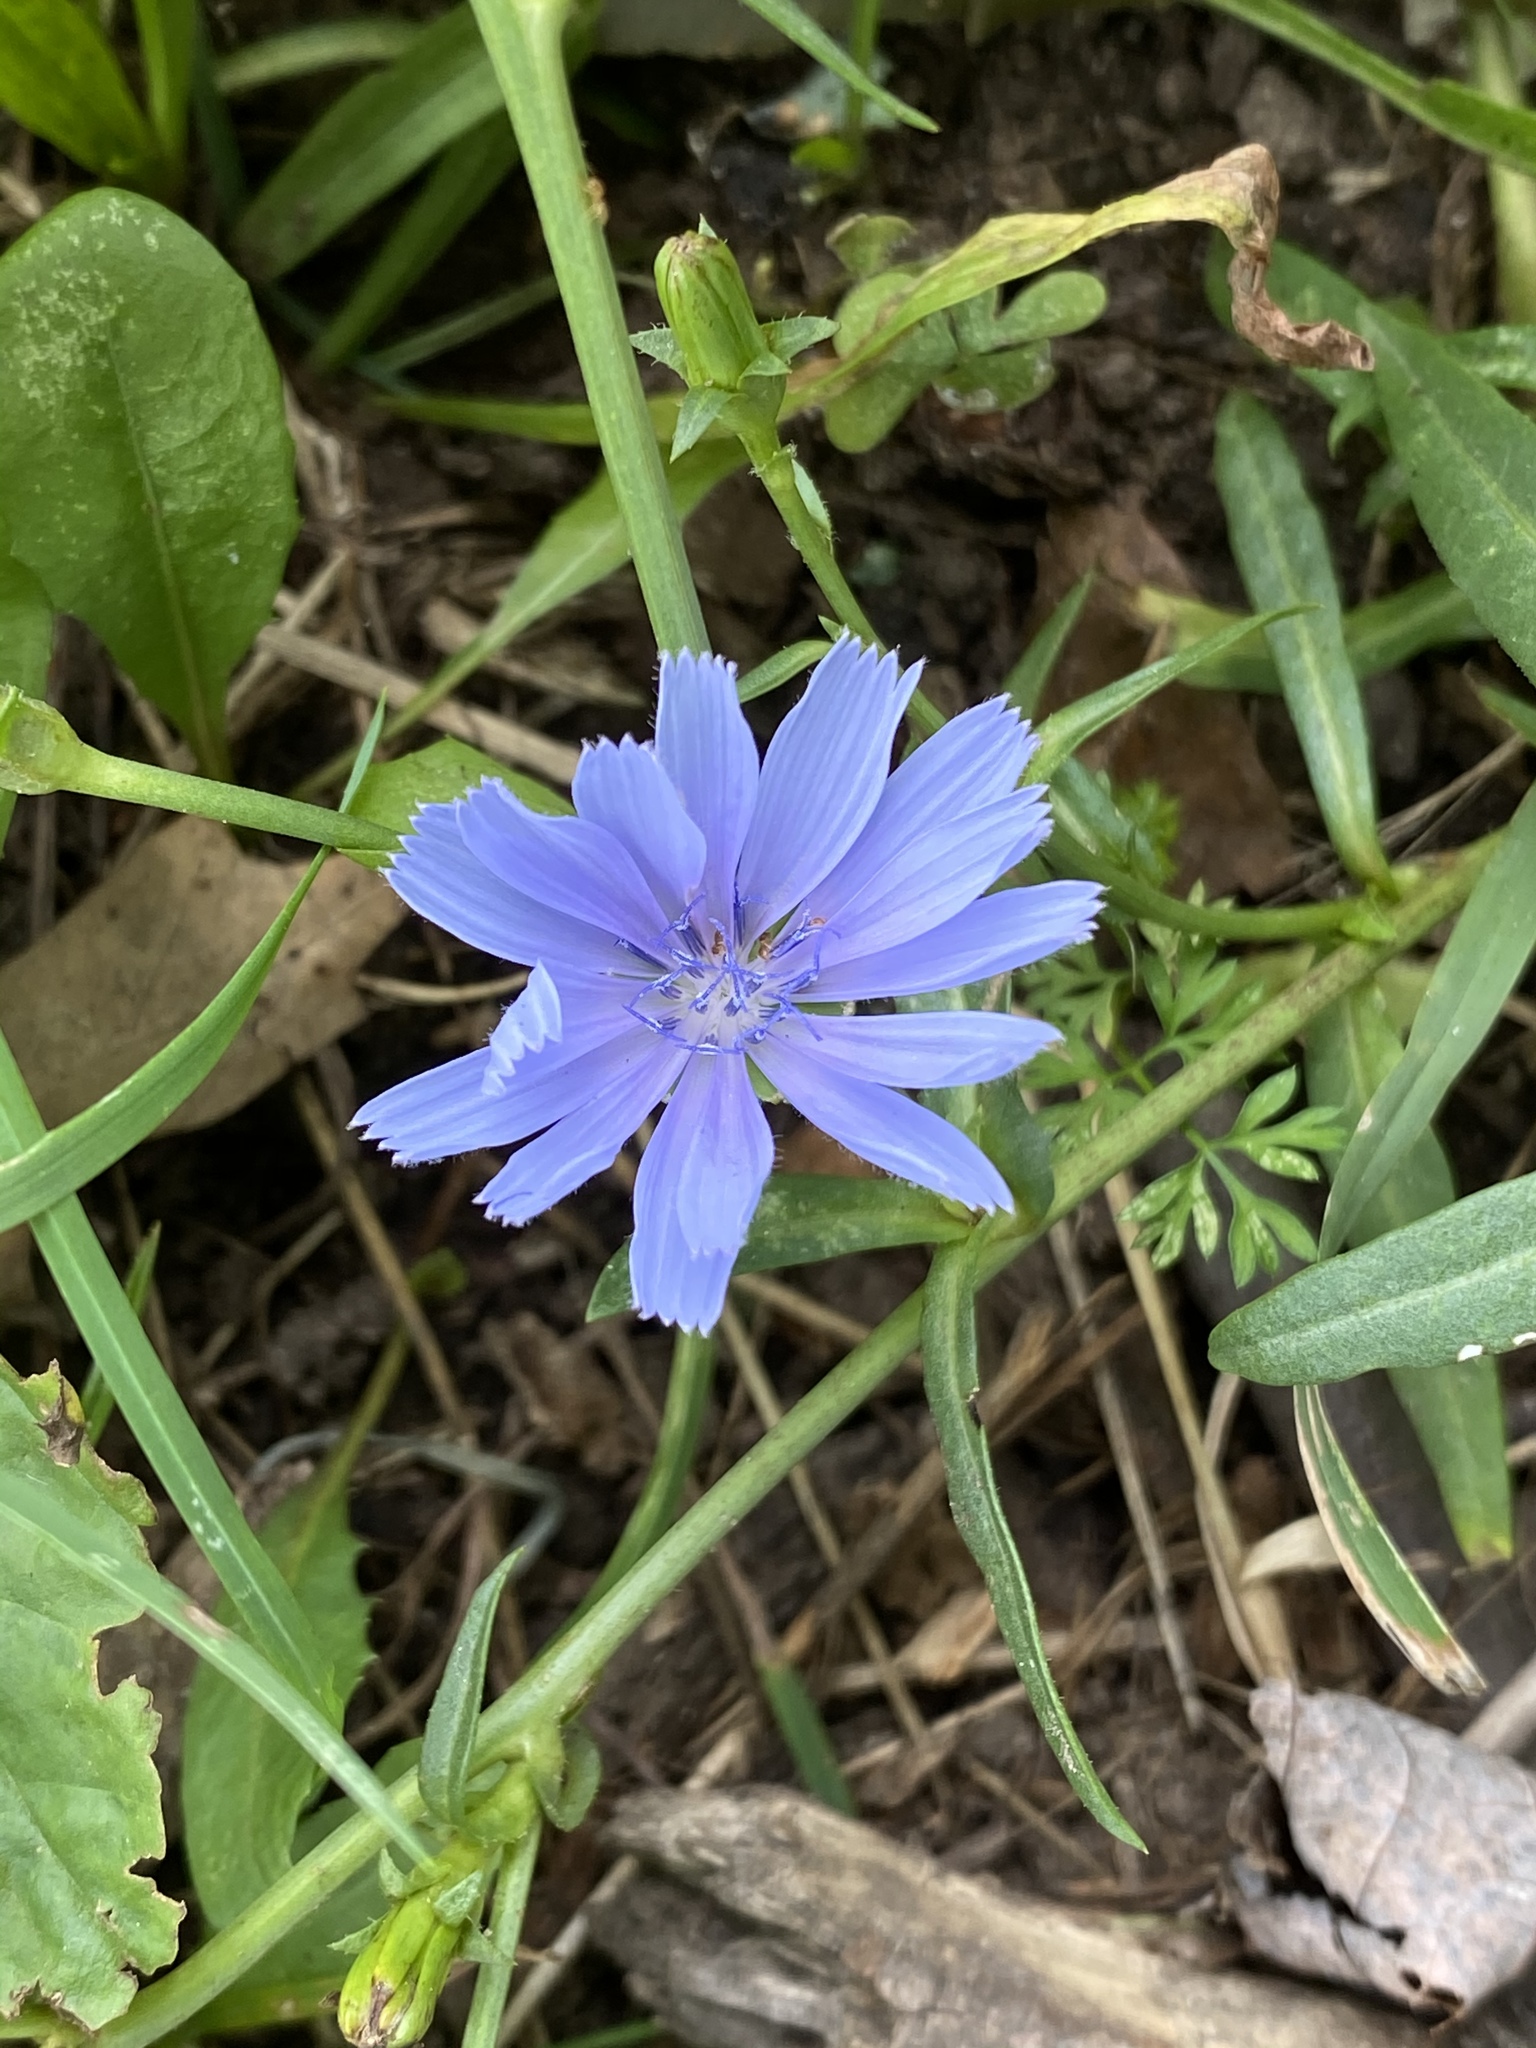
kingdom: Plantae
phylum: Tracheophyta
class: Magnoliopsida
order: Asterales
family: Asteraceae
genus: Cichorium
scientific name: Cichorium intybus
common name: Chicory
